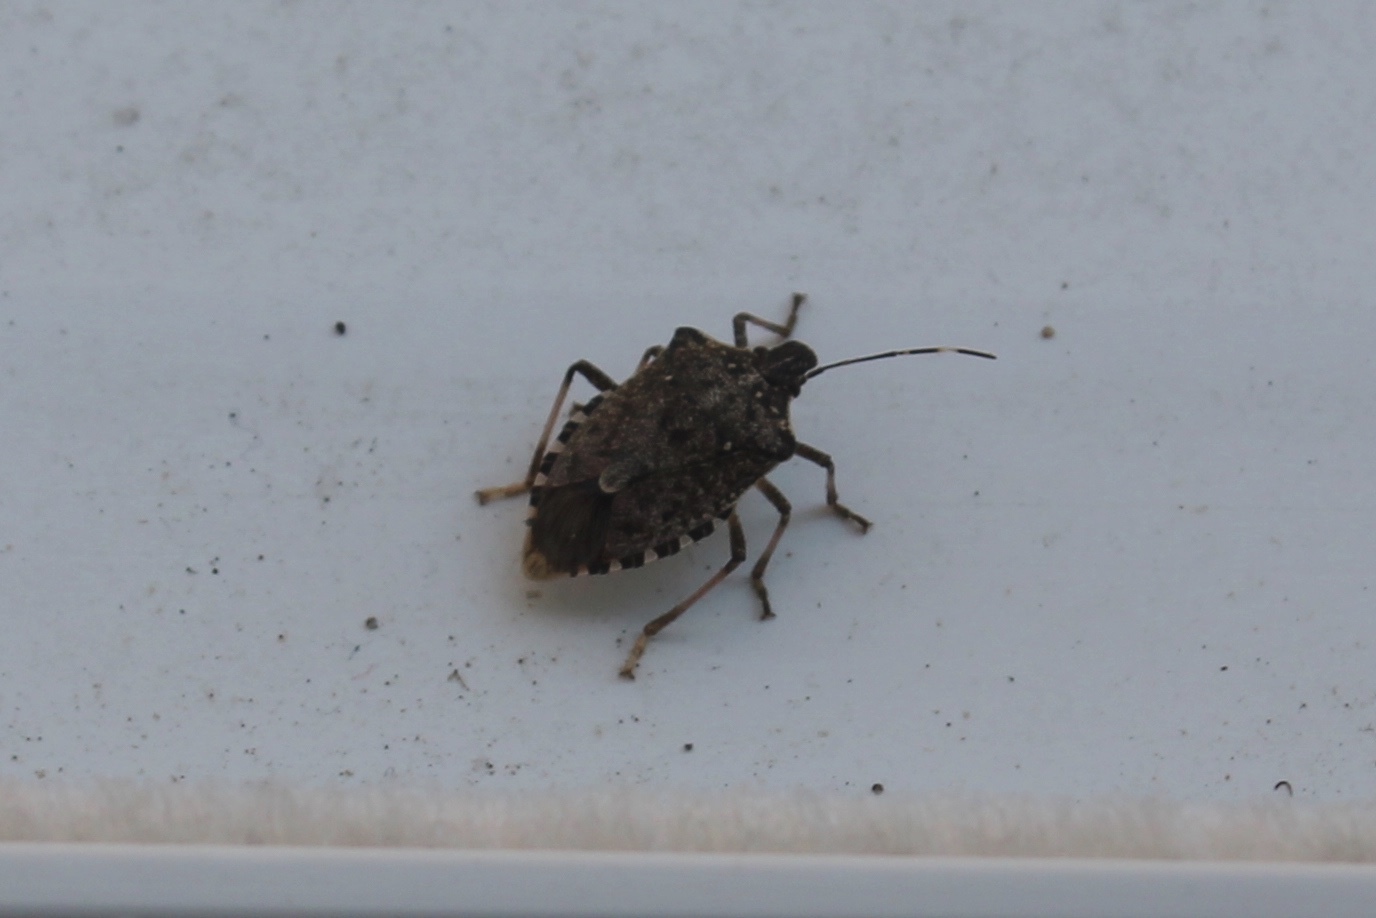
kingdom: Animalia
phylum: Arthropoda
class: Insecta
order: Hemiptera
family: Pentatomidae
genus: Halyomorpha
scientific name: Halyomorpha halys
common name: Brown marmorated stink bug
